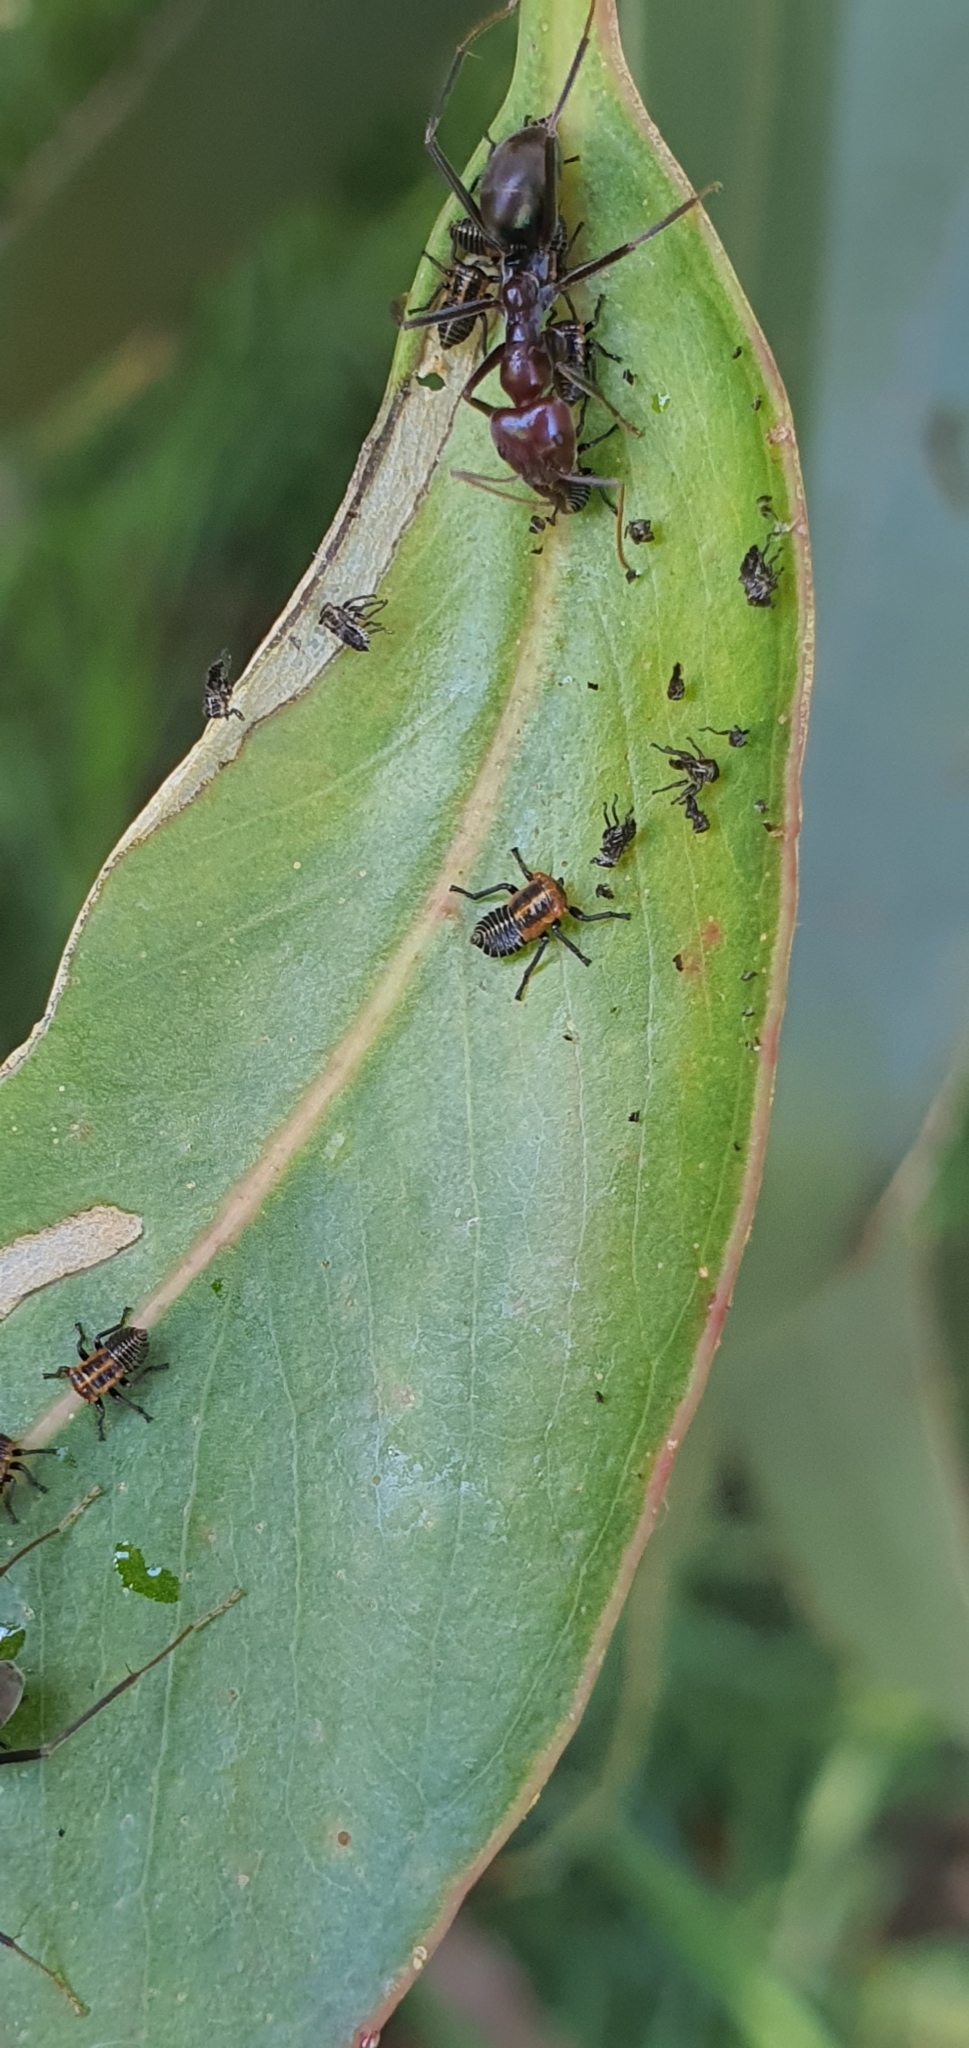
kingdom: Animalia
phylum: Arthropoda
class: Insecta
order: Hymenoptera
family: Formicidae
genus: Iridomyrmex
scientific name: Iridomyrmex purpureus
